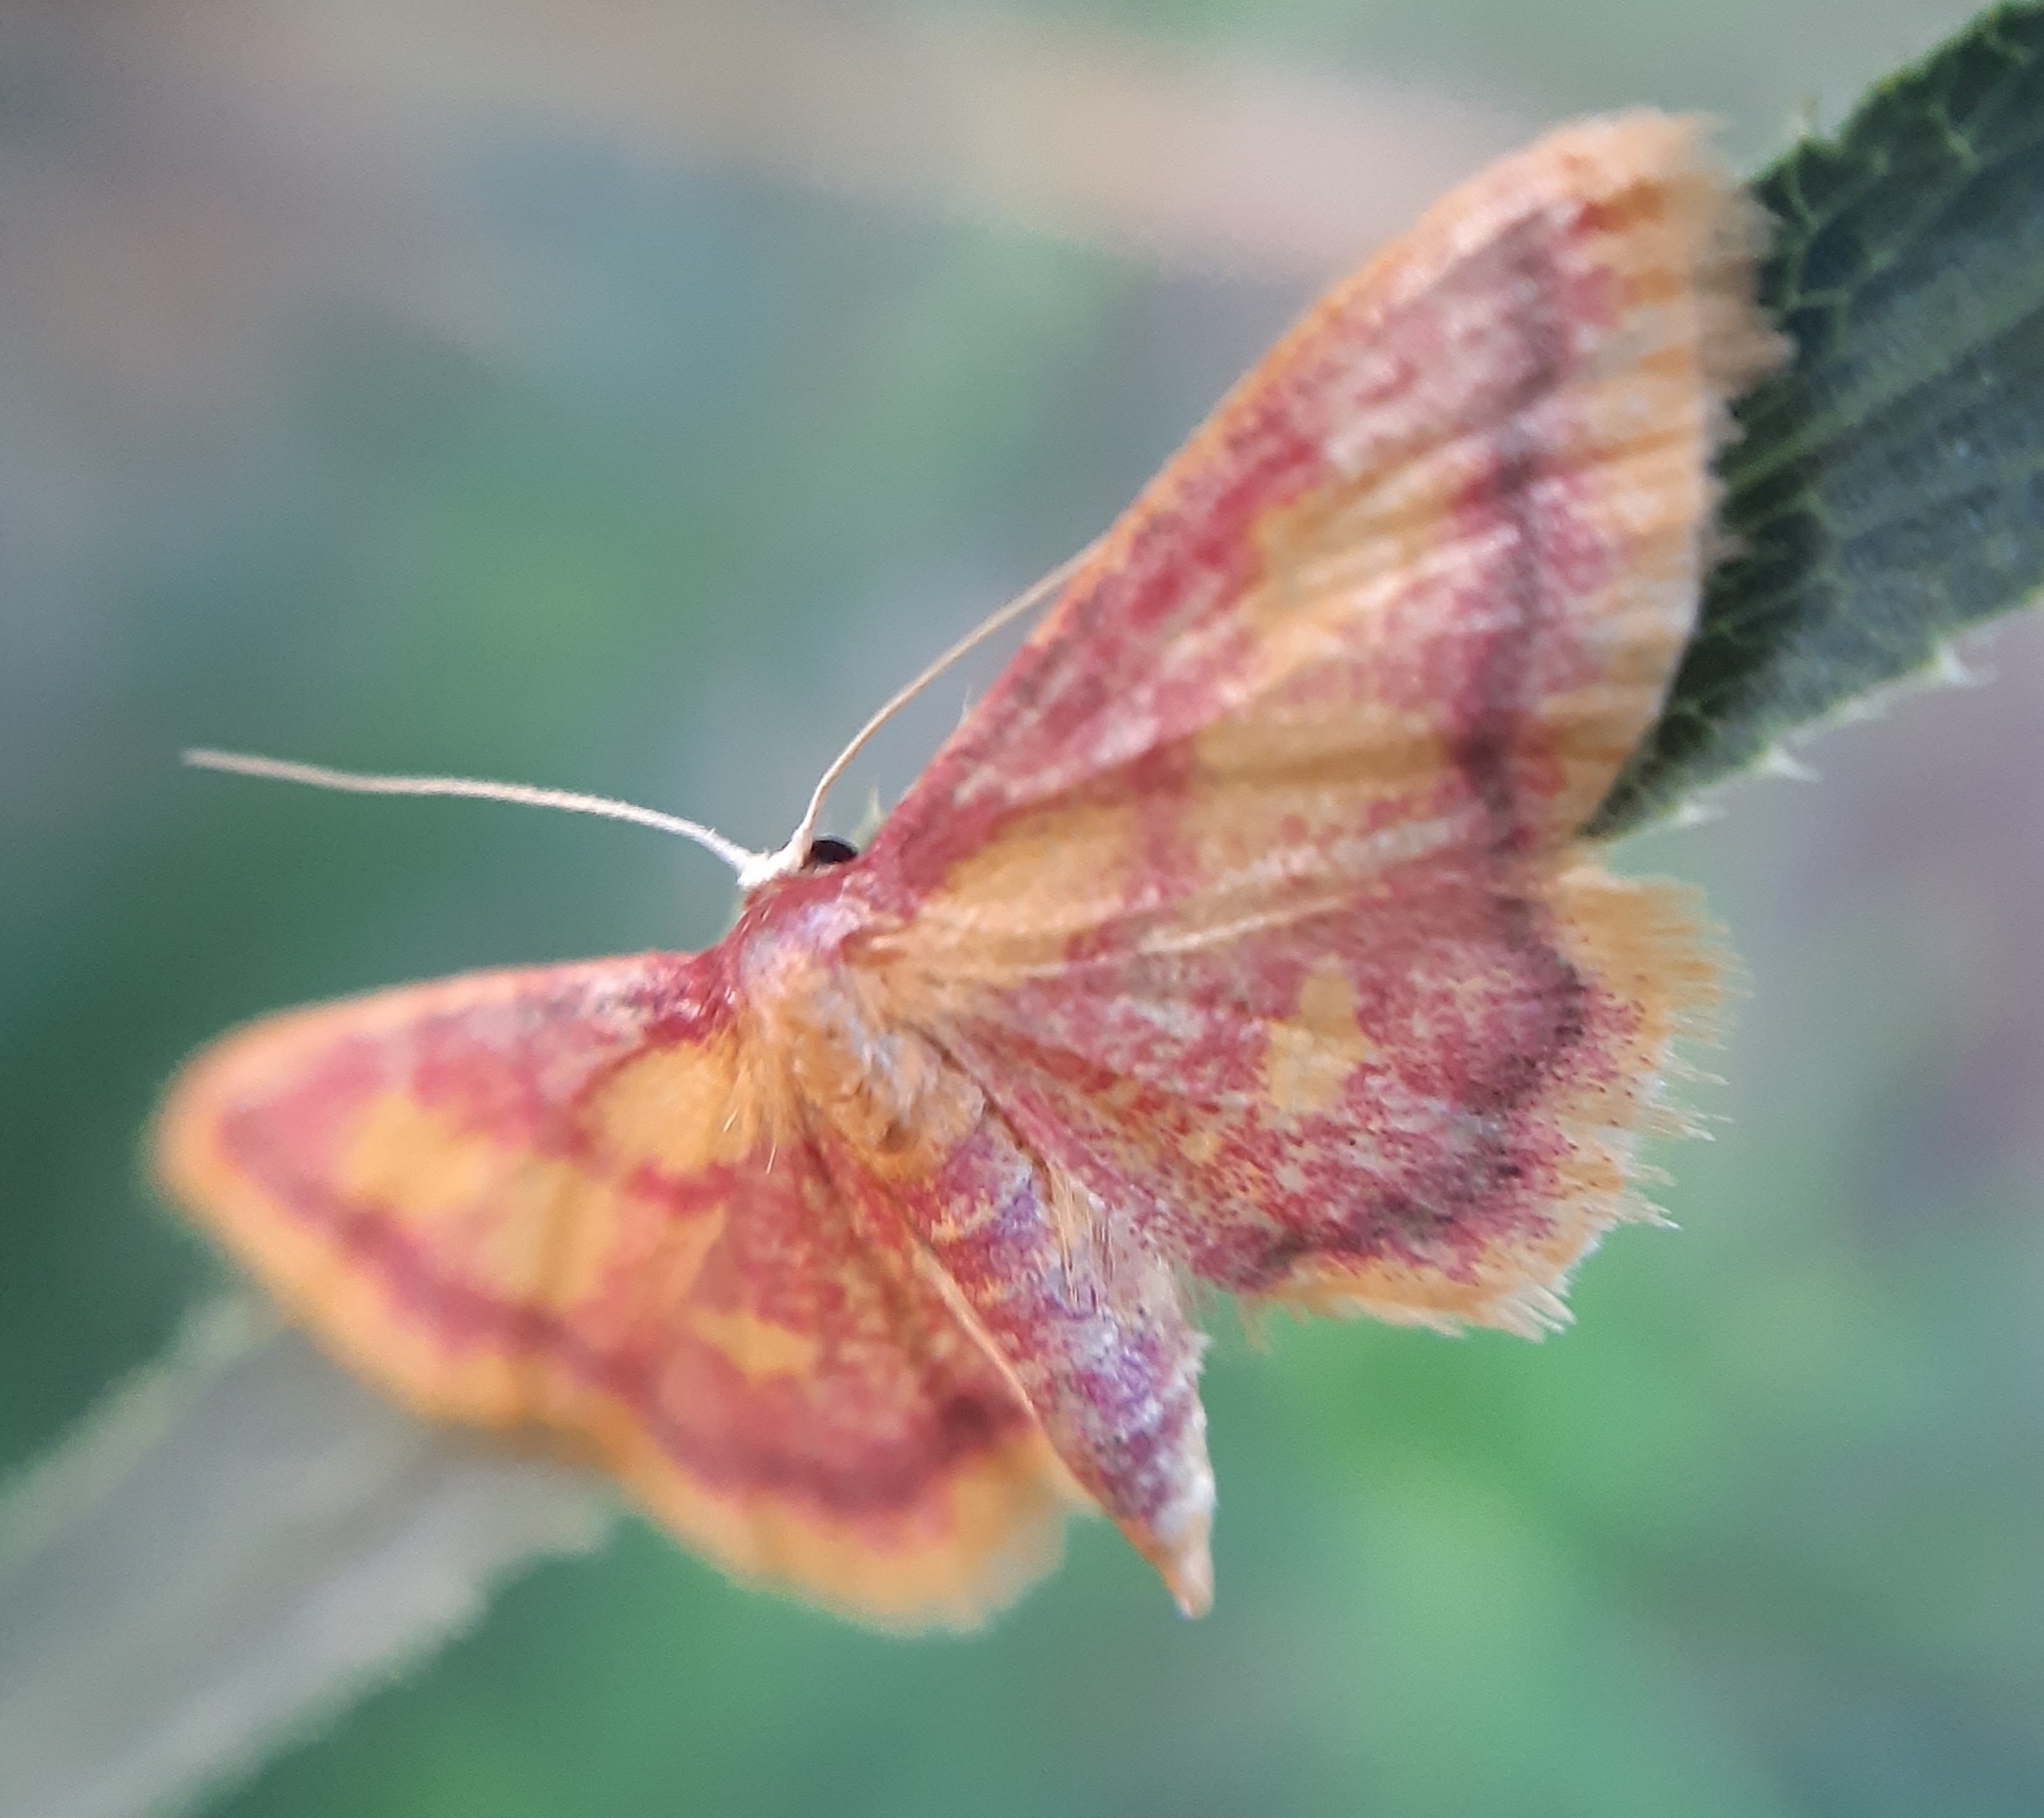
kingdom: Animalia
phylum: Arthropoda
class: Insecta
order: Lepidoptera
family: Geometridae
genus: Idaea
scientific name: Idaea muricata
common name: Purple-bordered gold
